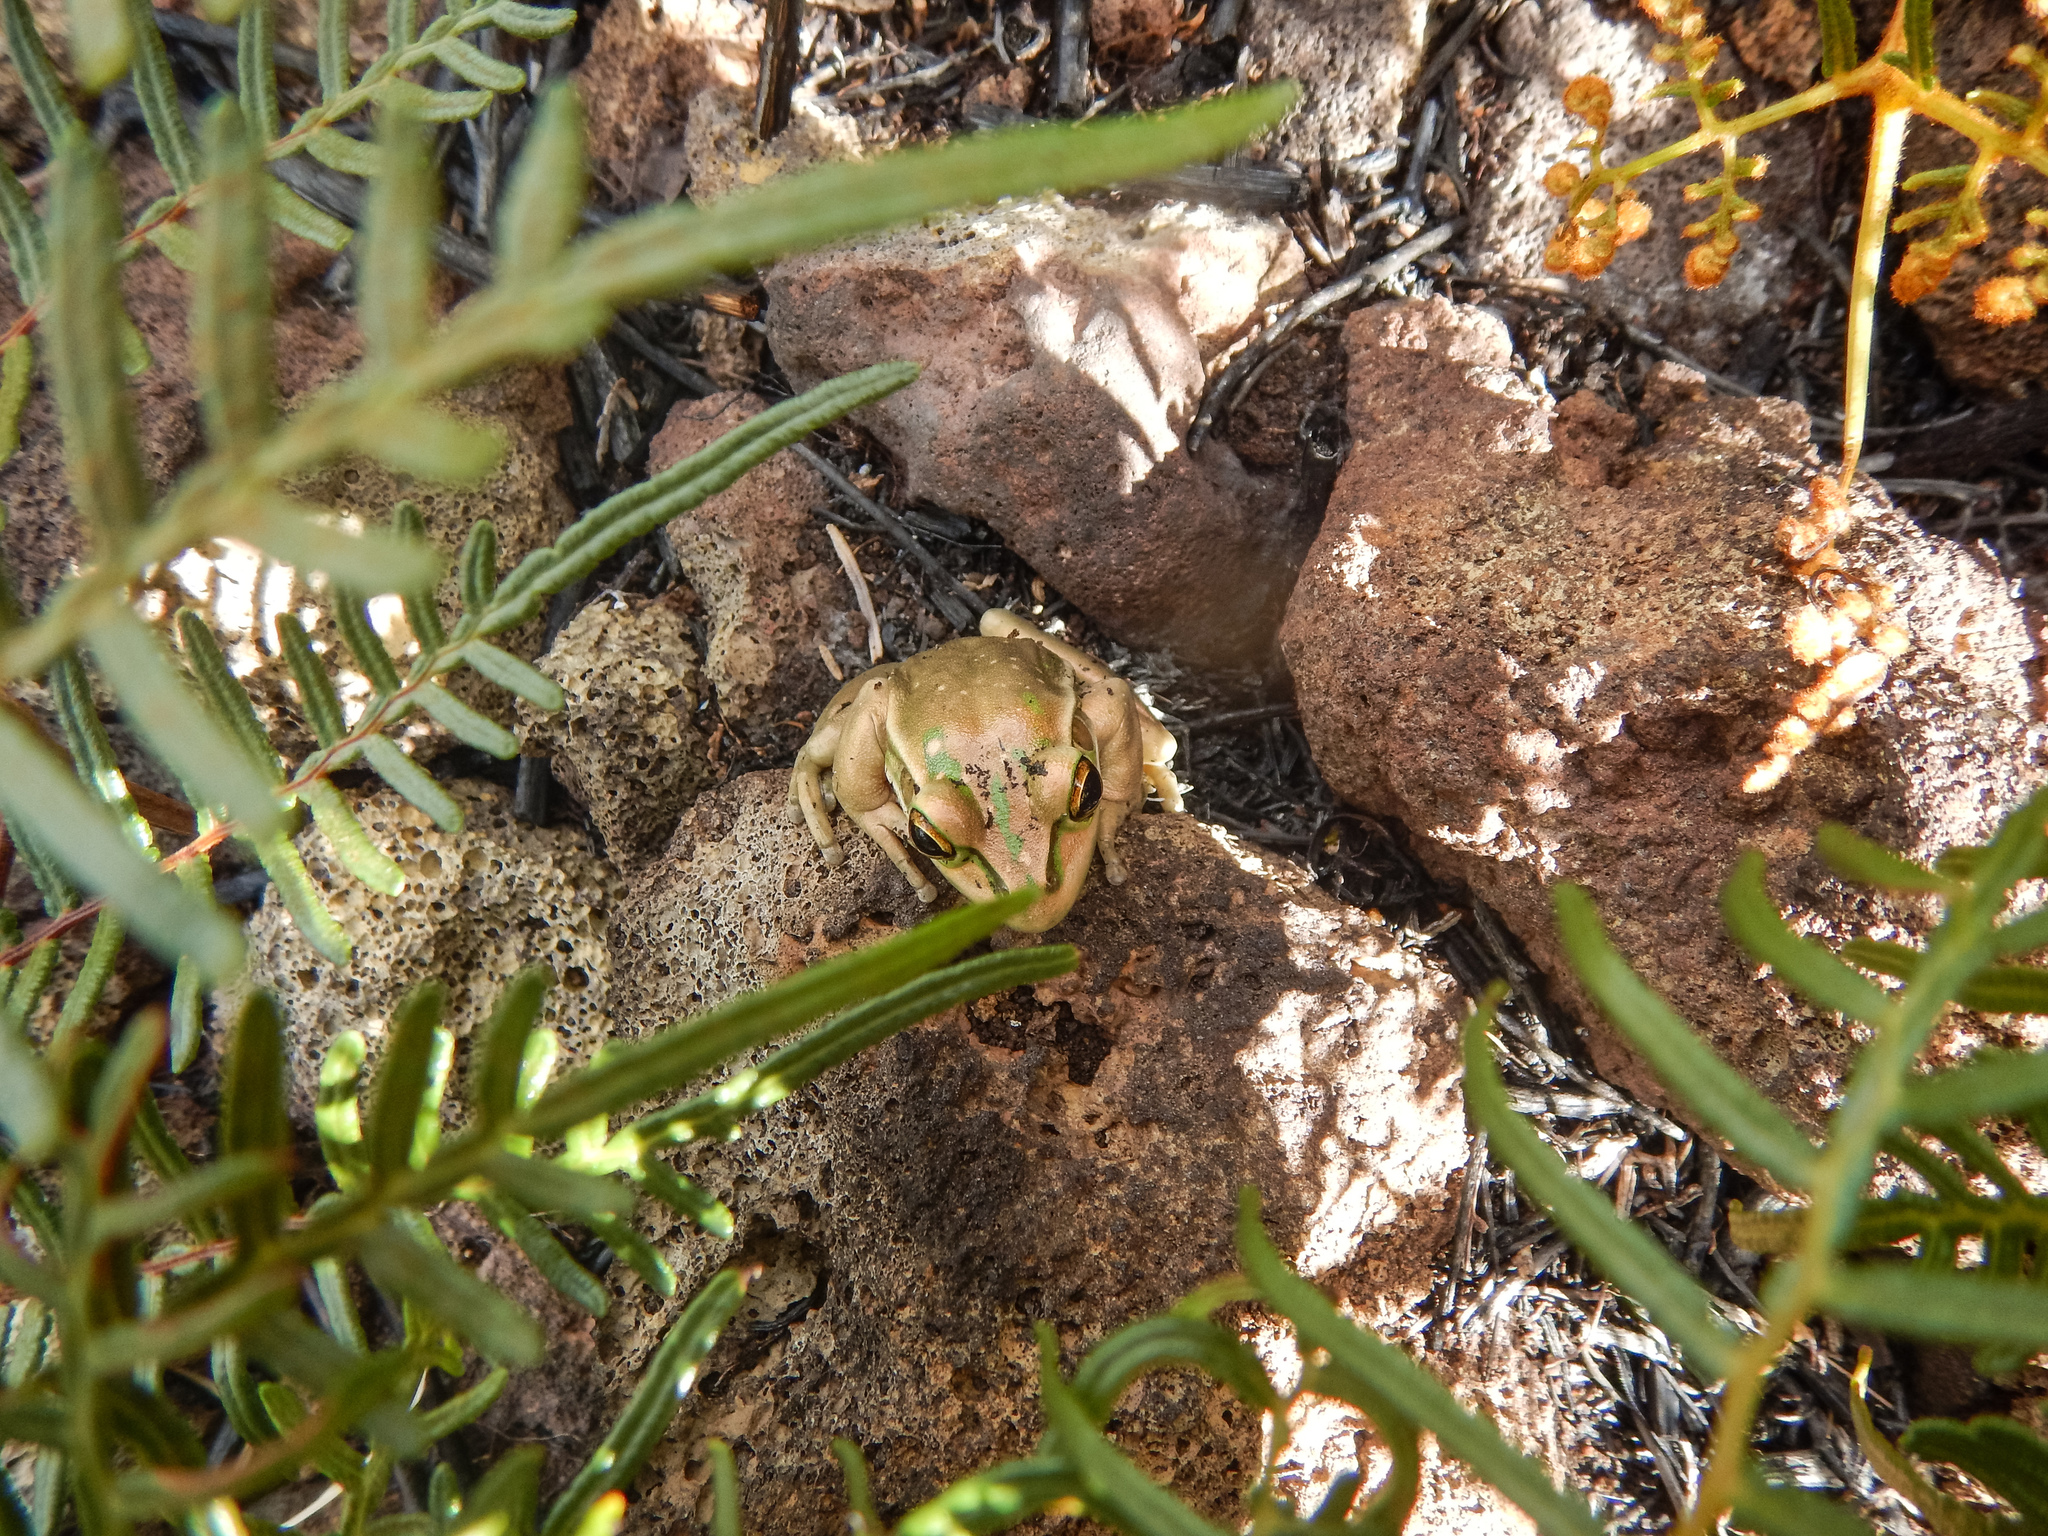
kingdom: Animalia
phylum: Chordata
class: Amphibia
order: Anura
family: Pelodryadidae
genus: Ranoidea
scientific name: Ranoidea aurea
